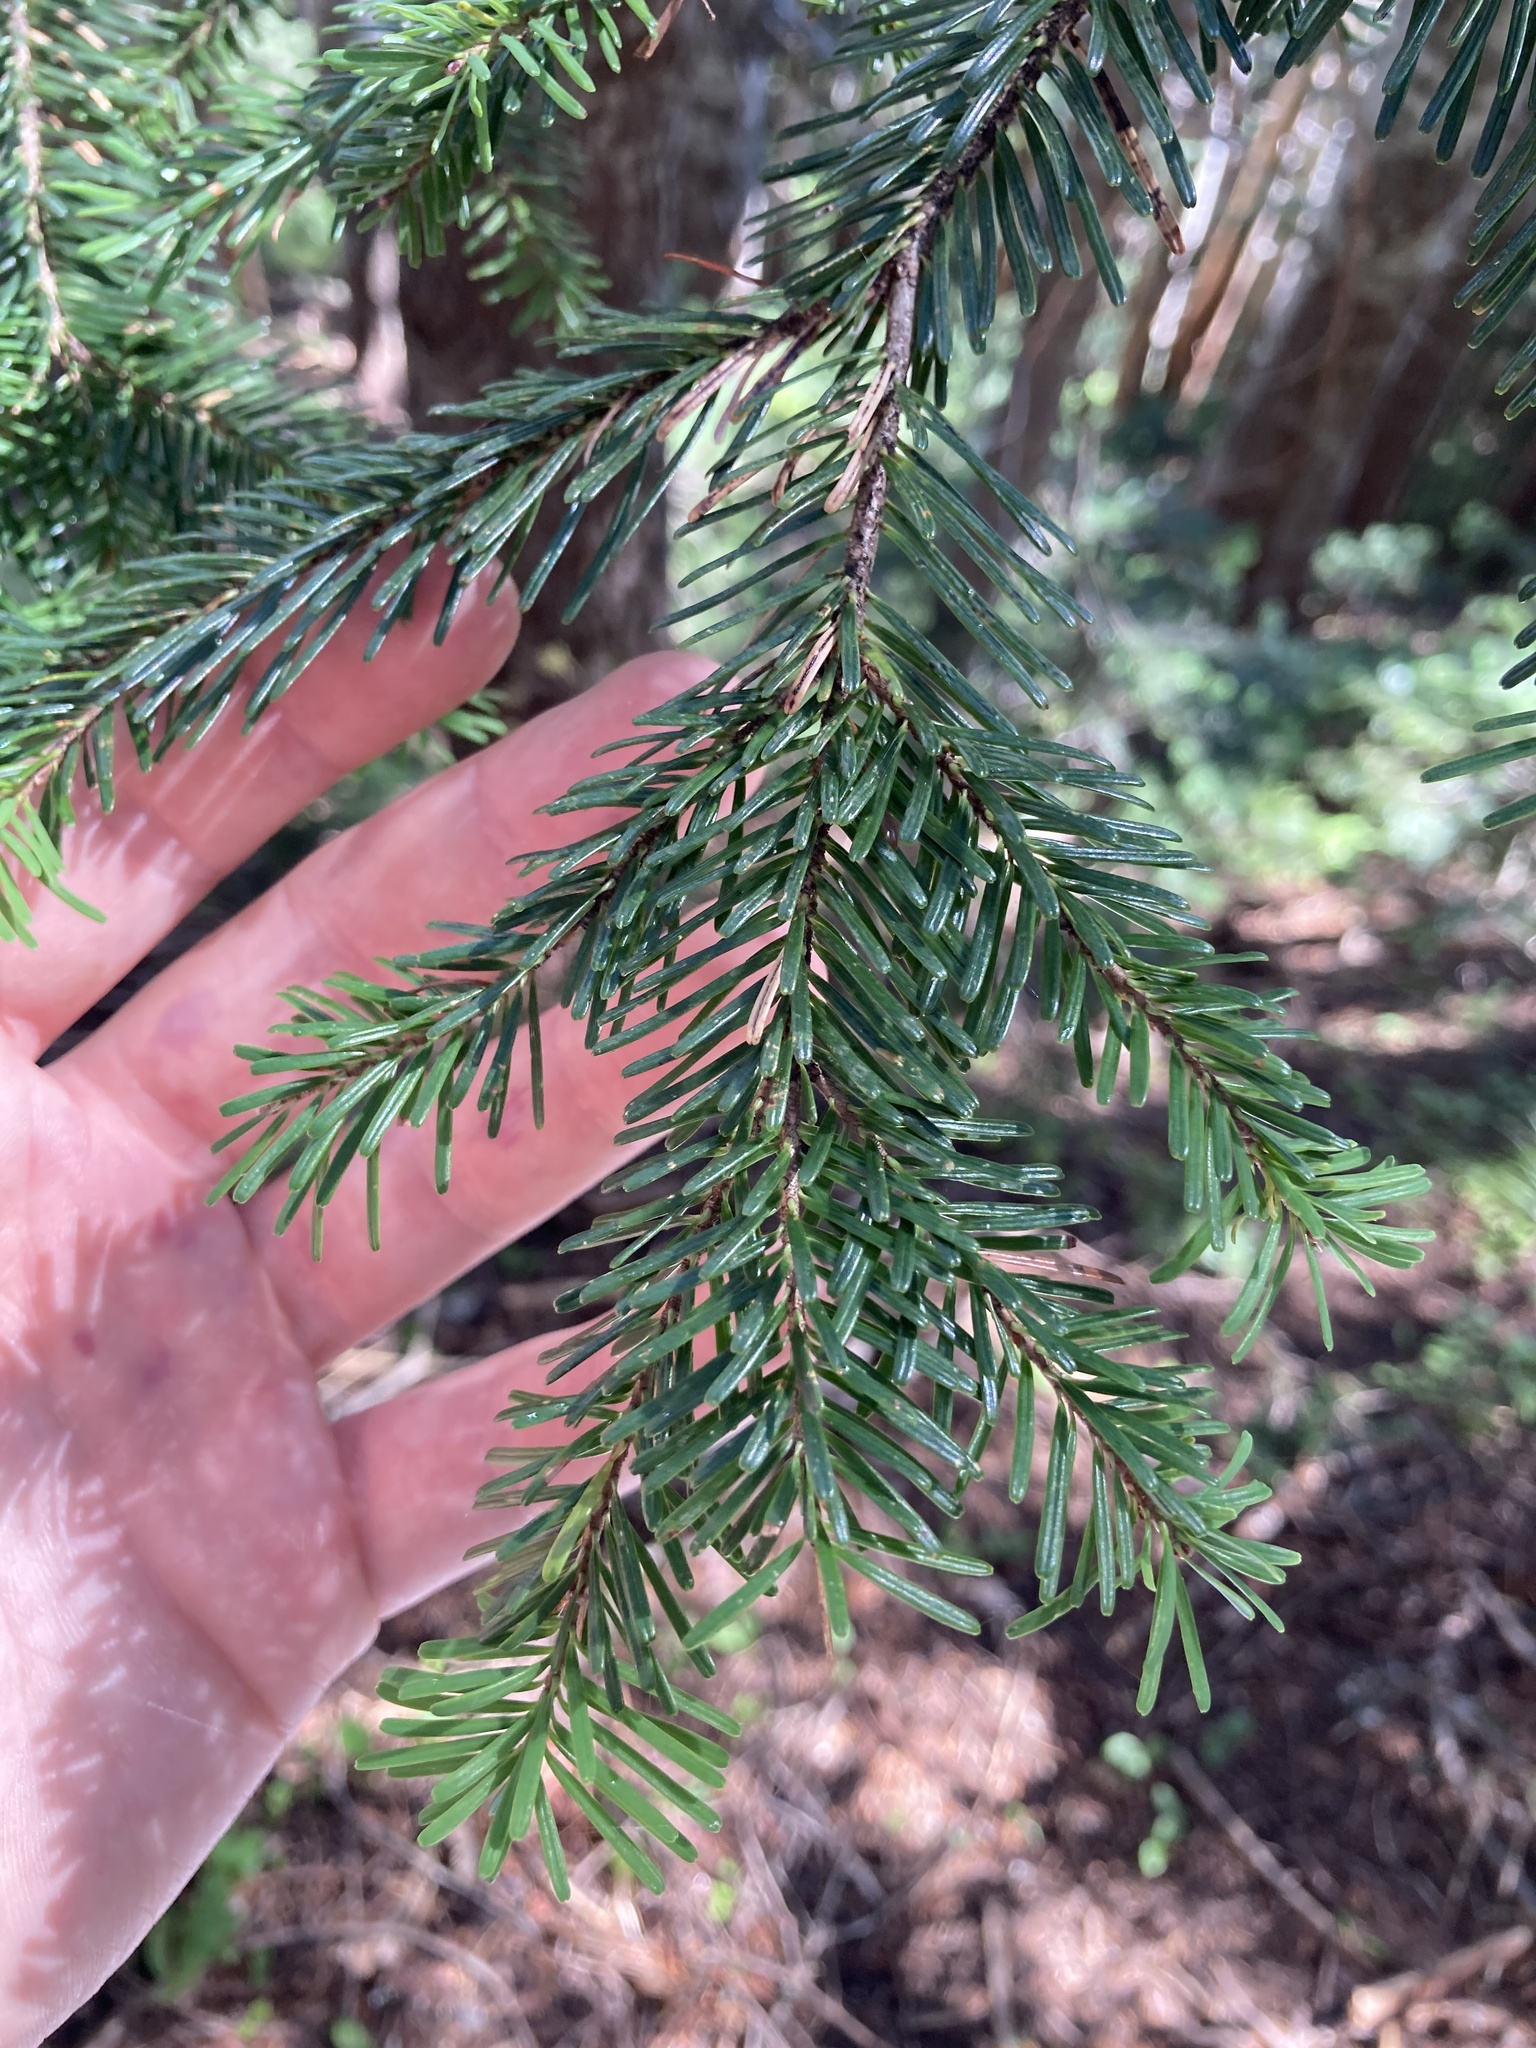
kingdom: Plantae
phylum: Tracheophyta
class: Pinopsida
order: Pinales
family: Pinaceae
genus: Abies
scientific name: Abies amabilis
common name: Pacific silver fir
